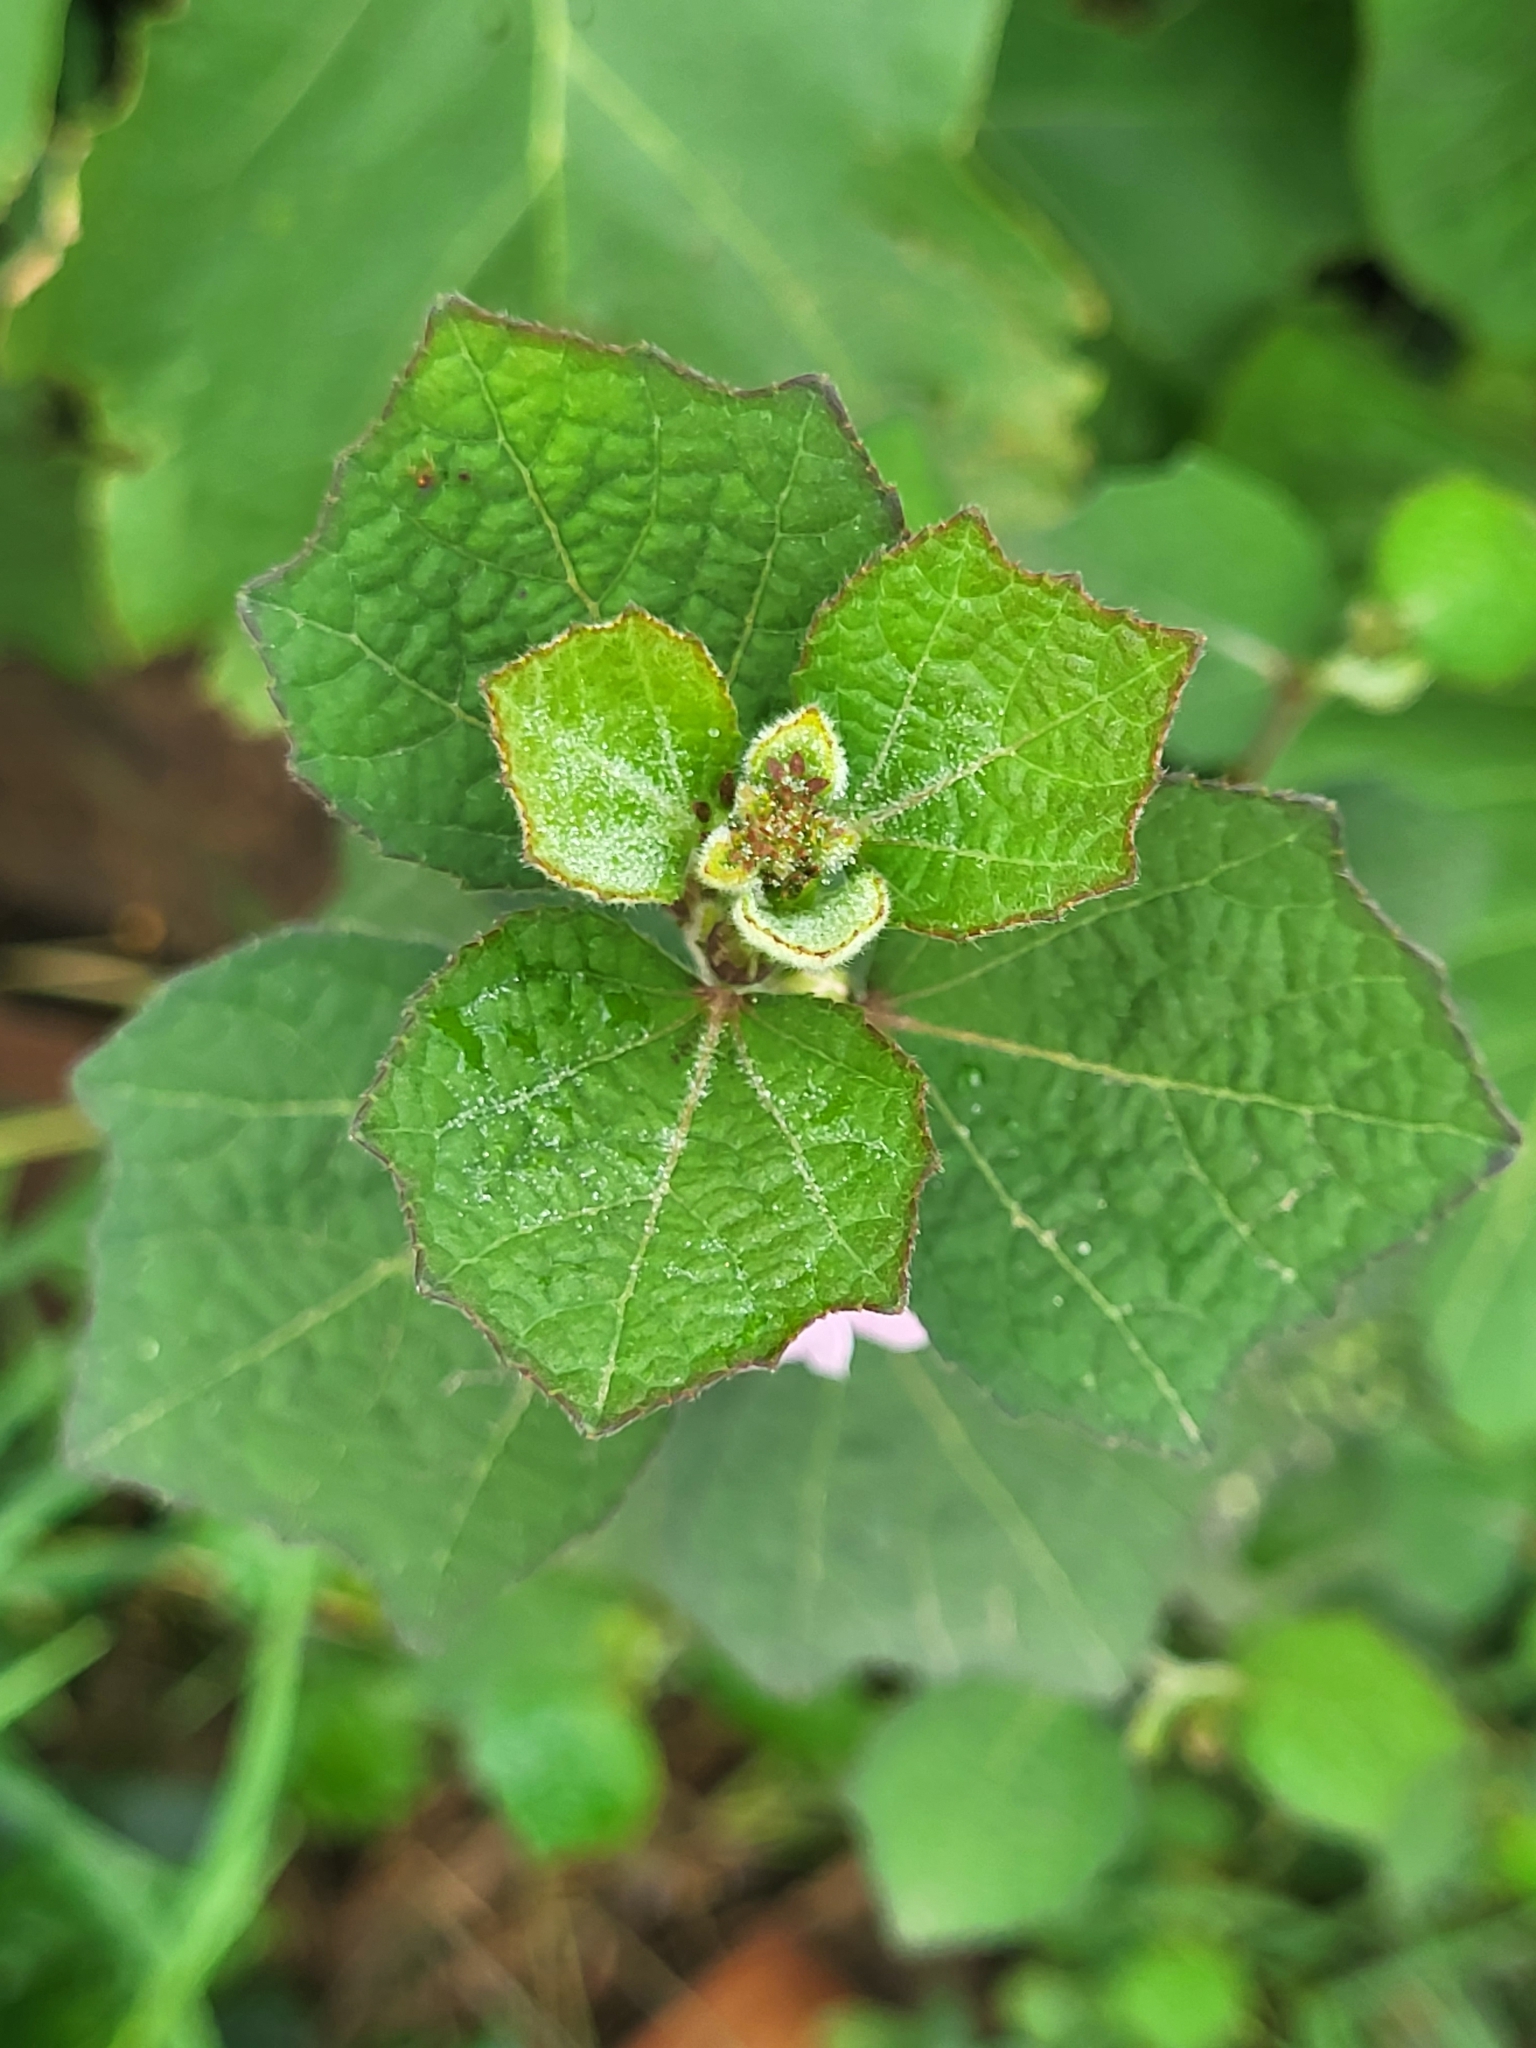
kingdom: Plantae
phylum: Tracheophyta
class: Magnoliopsida
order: Malvales
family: Malvaceae
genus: Urena
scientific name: Urena lobata
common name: Caesarweed
